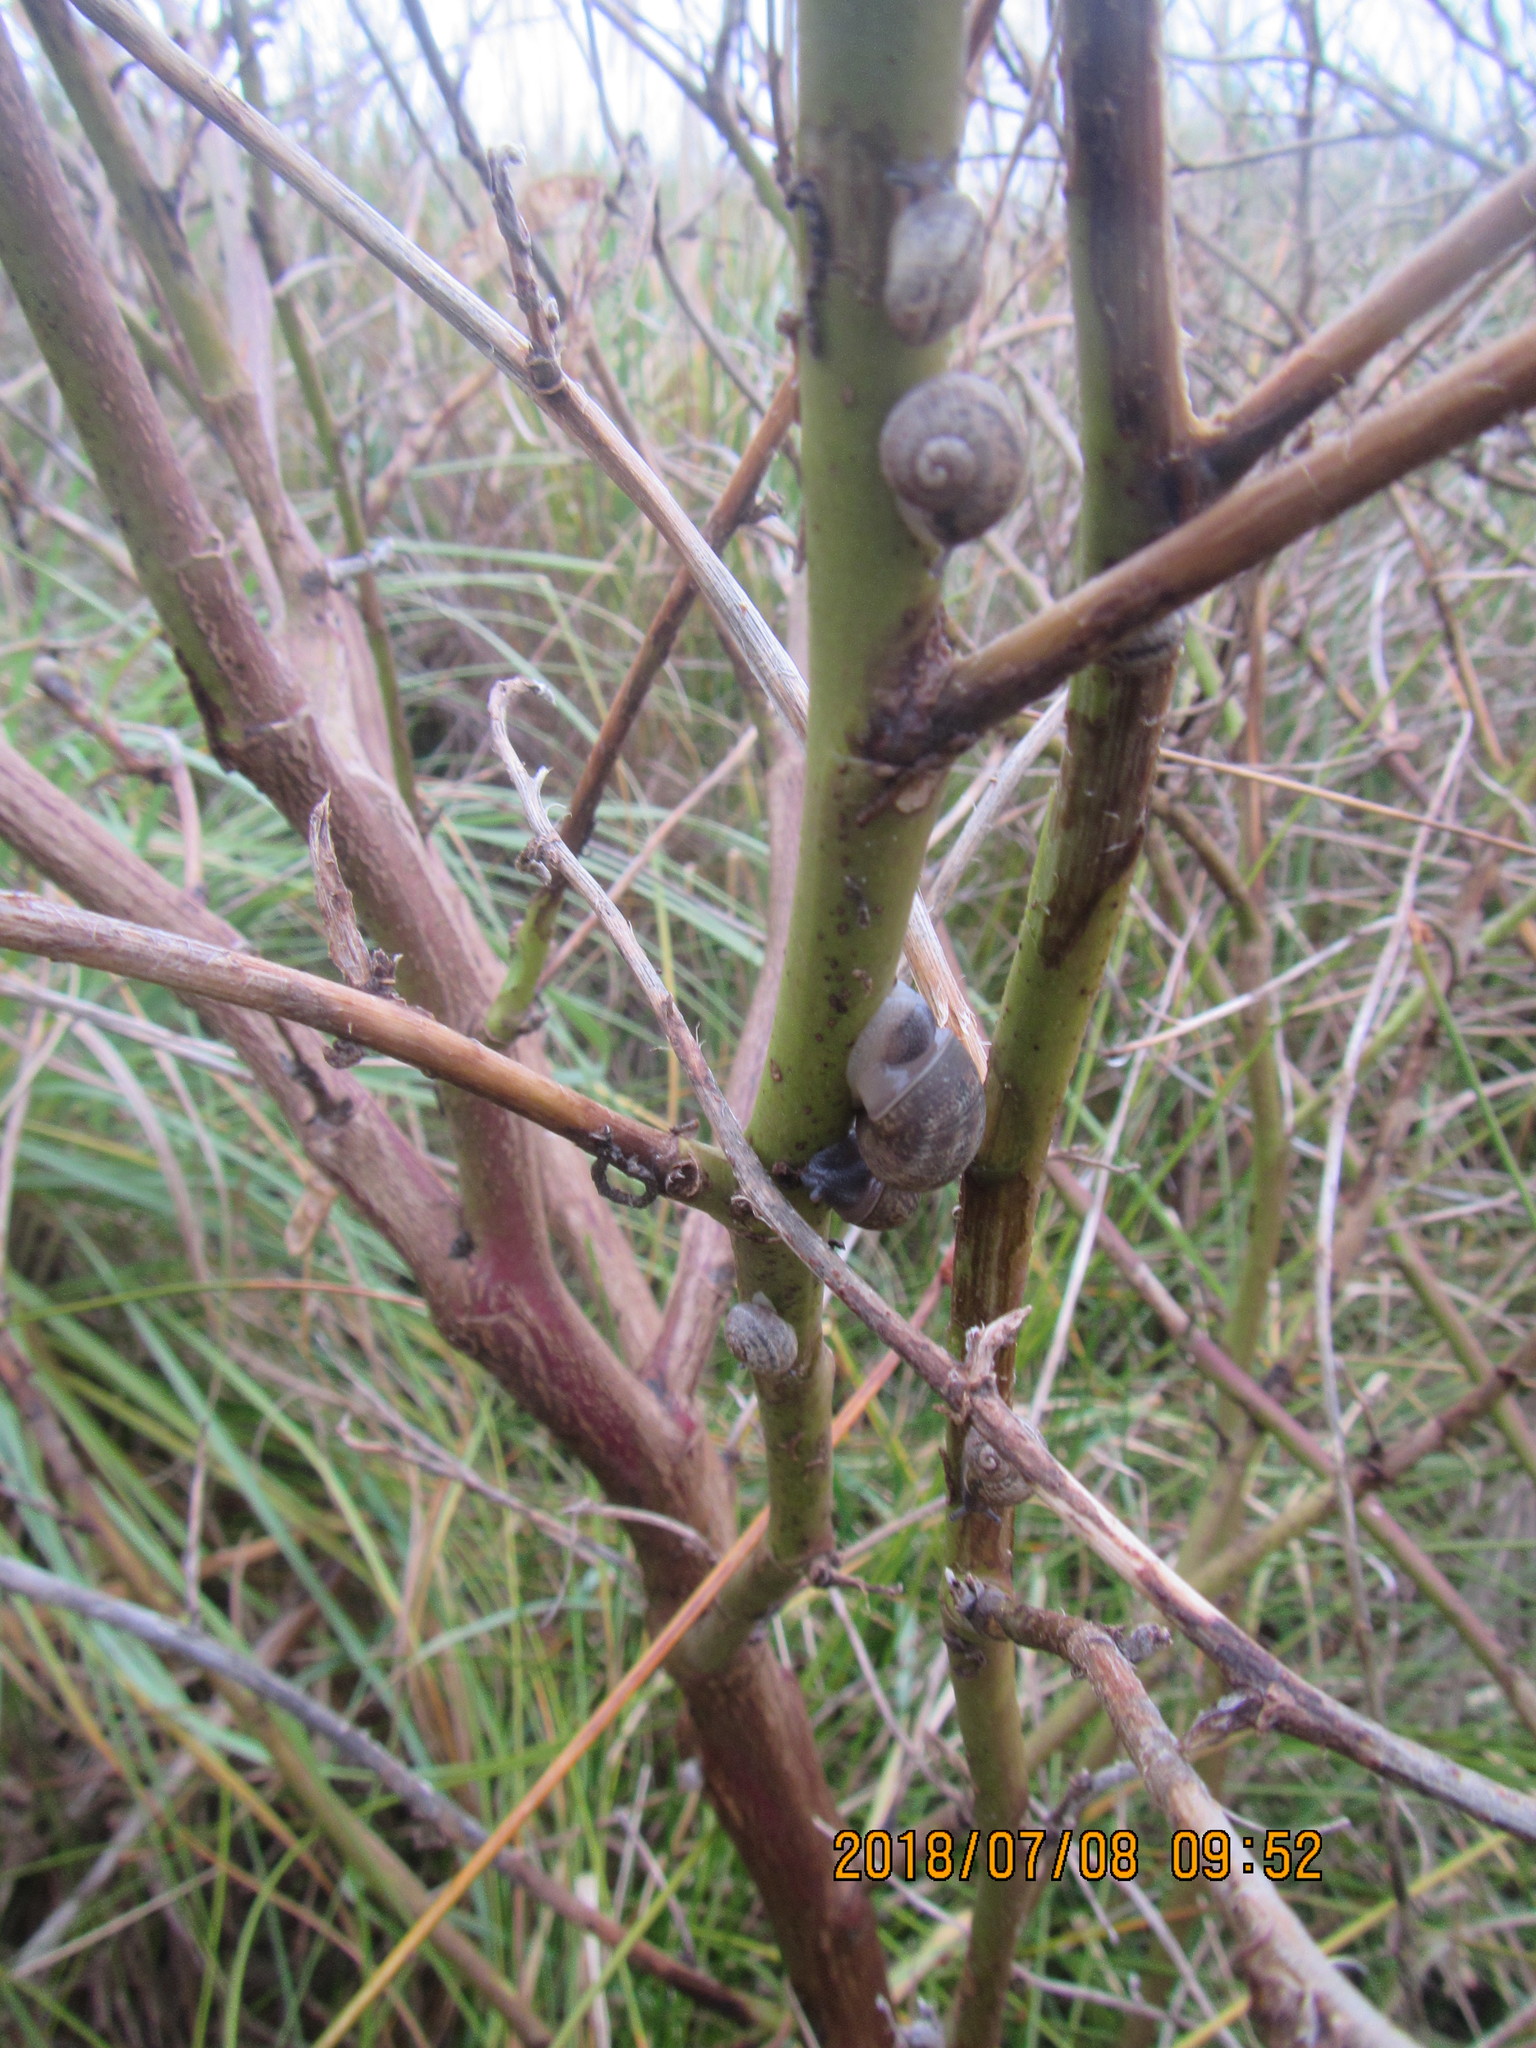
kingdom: Animalia
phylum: Mollusca
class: Gastropoda
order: Stylommatophora
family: Helicidae
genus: Cornu
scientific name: Cornu aspersum
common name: Brown garden snail
